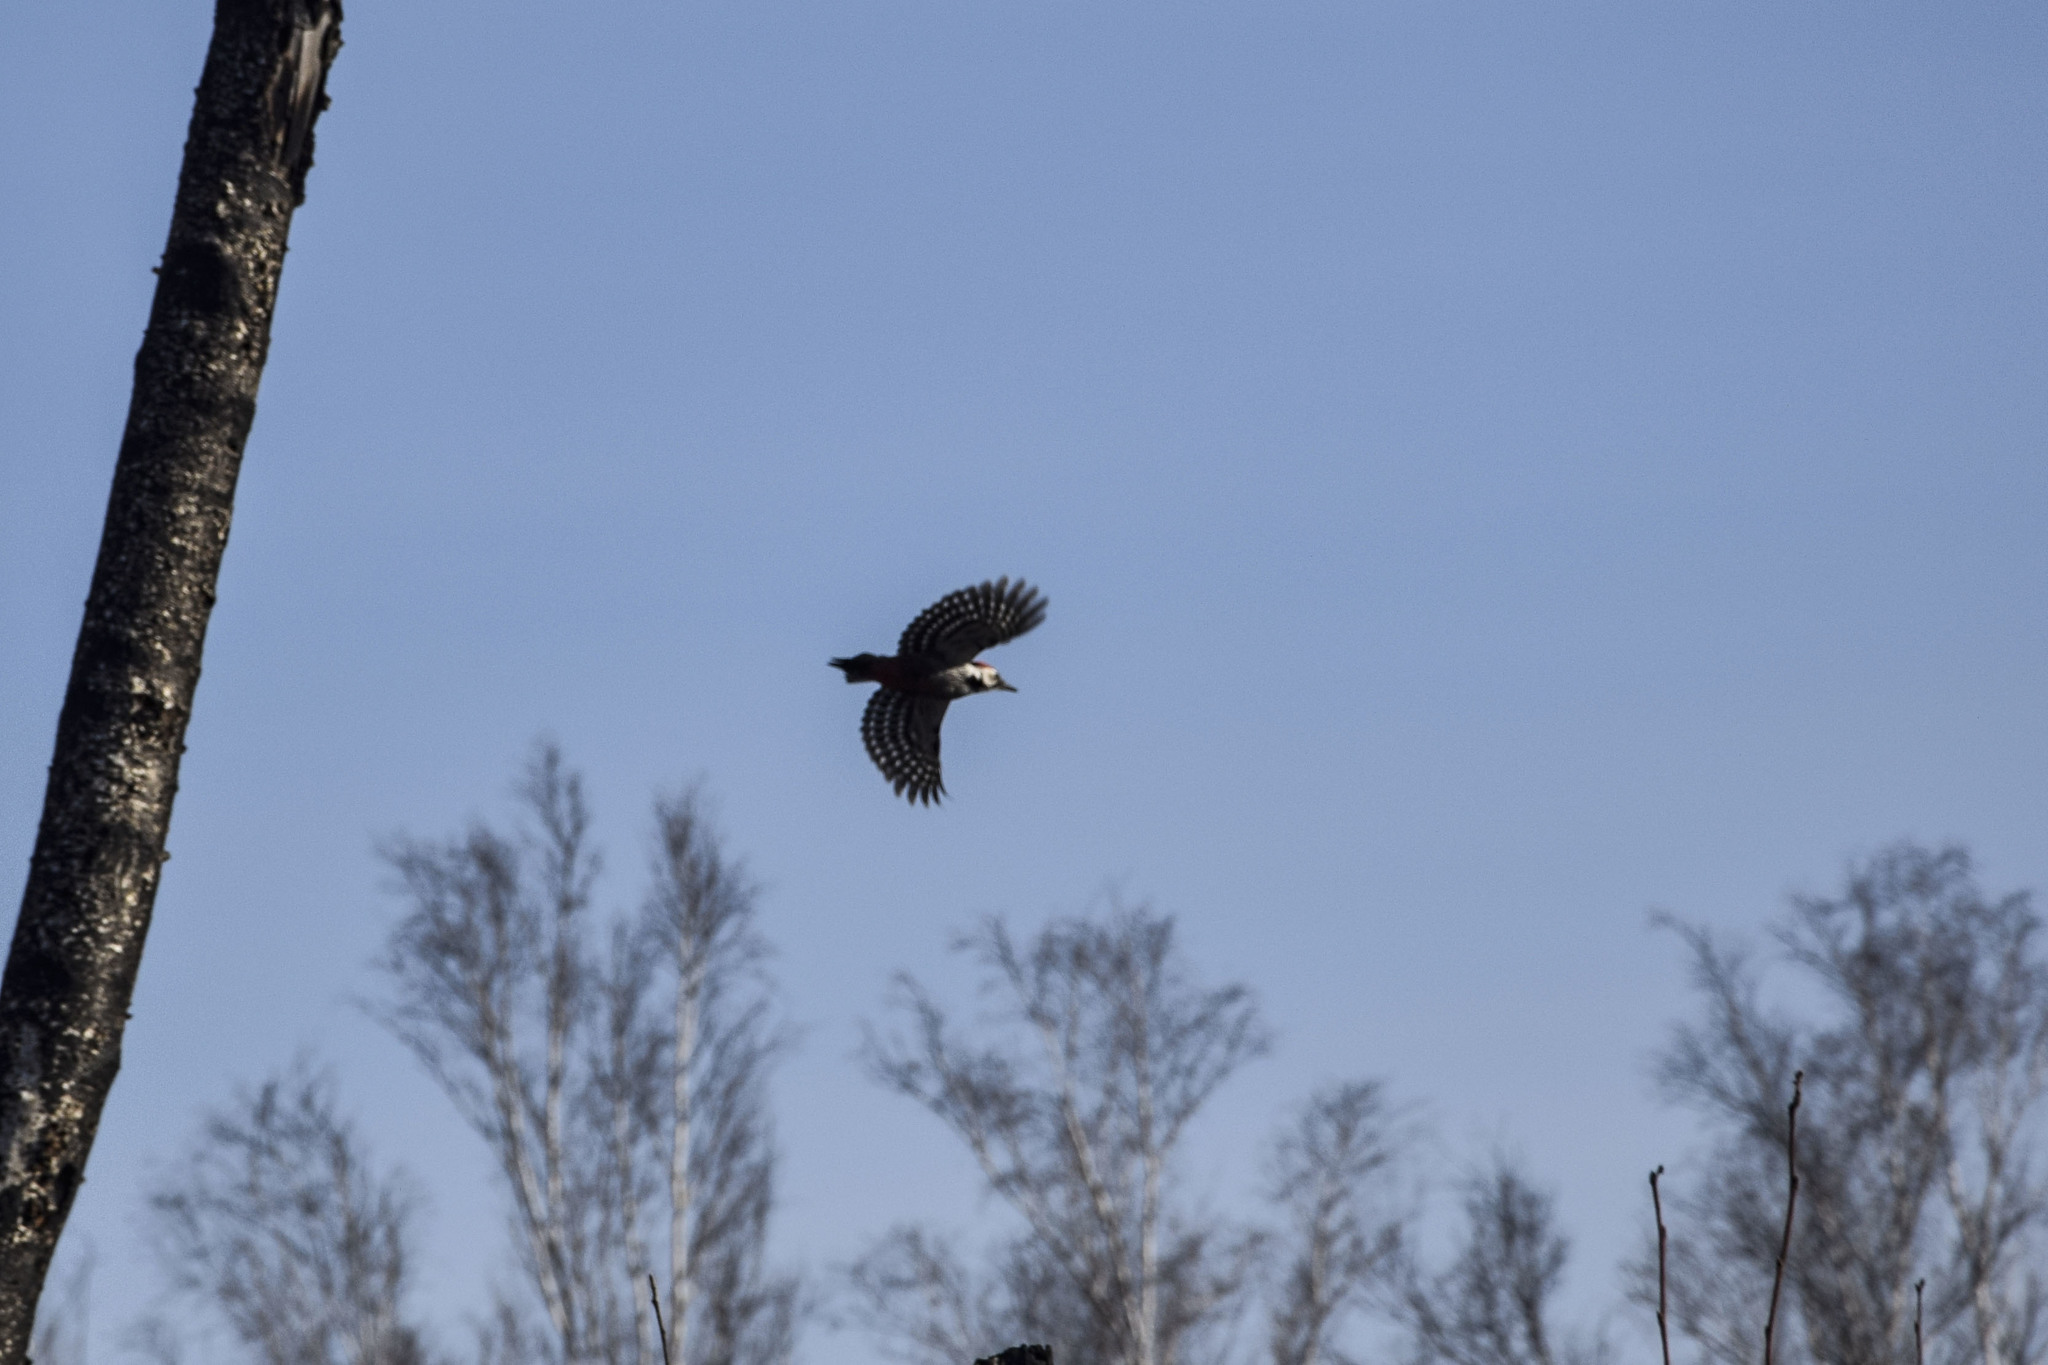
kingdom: Animalia
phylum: Chordata
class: Aves
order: Piciformes
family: Picidae
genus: Dendrocopos
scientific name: Dendrocopos major
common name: Great spotted woodpecker
